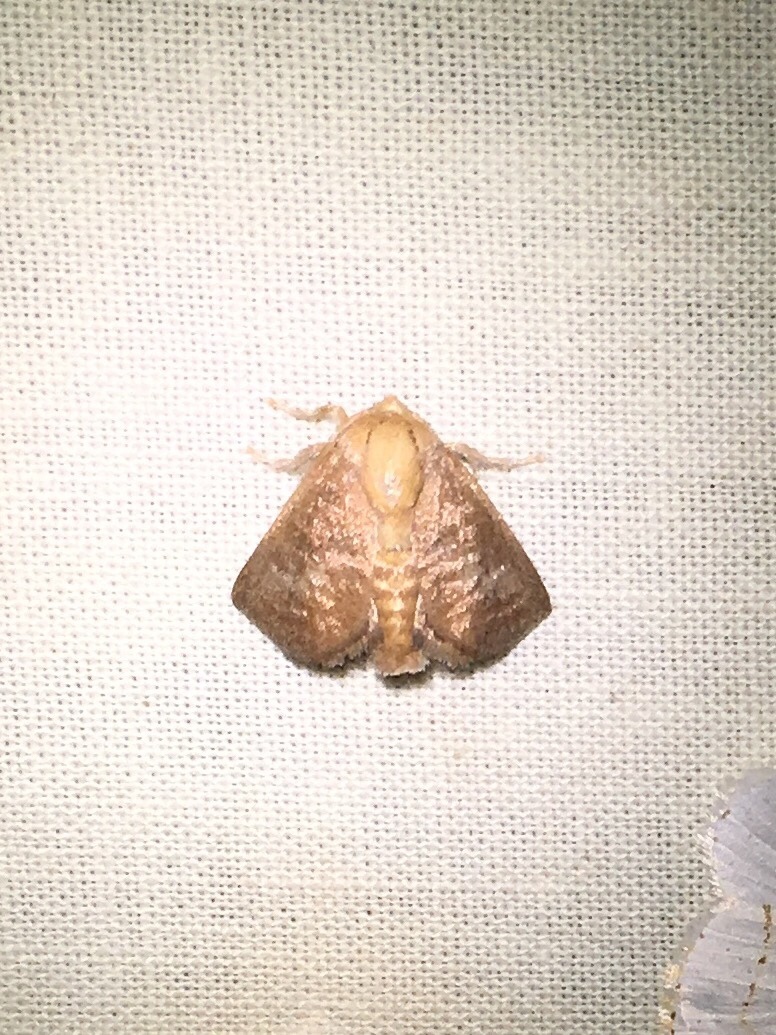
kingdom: Animalia
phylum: Arthropoda
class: Insecta
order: Lepidoptera
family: Limacodidae
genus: Isa
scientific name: Isa textula
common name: Crowned slug moth
